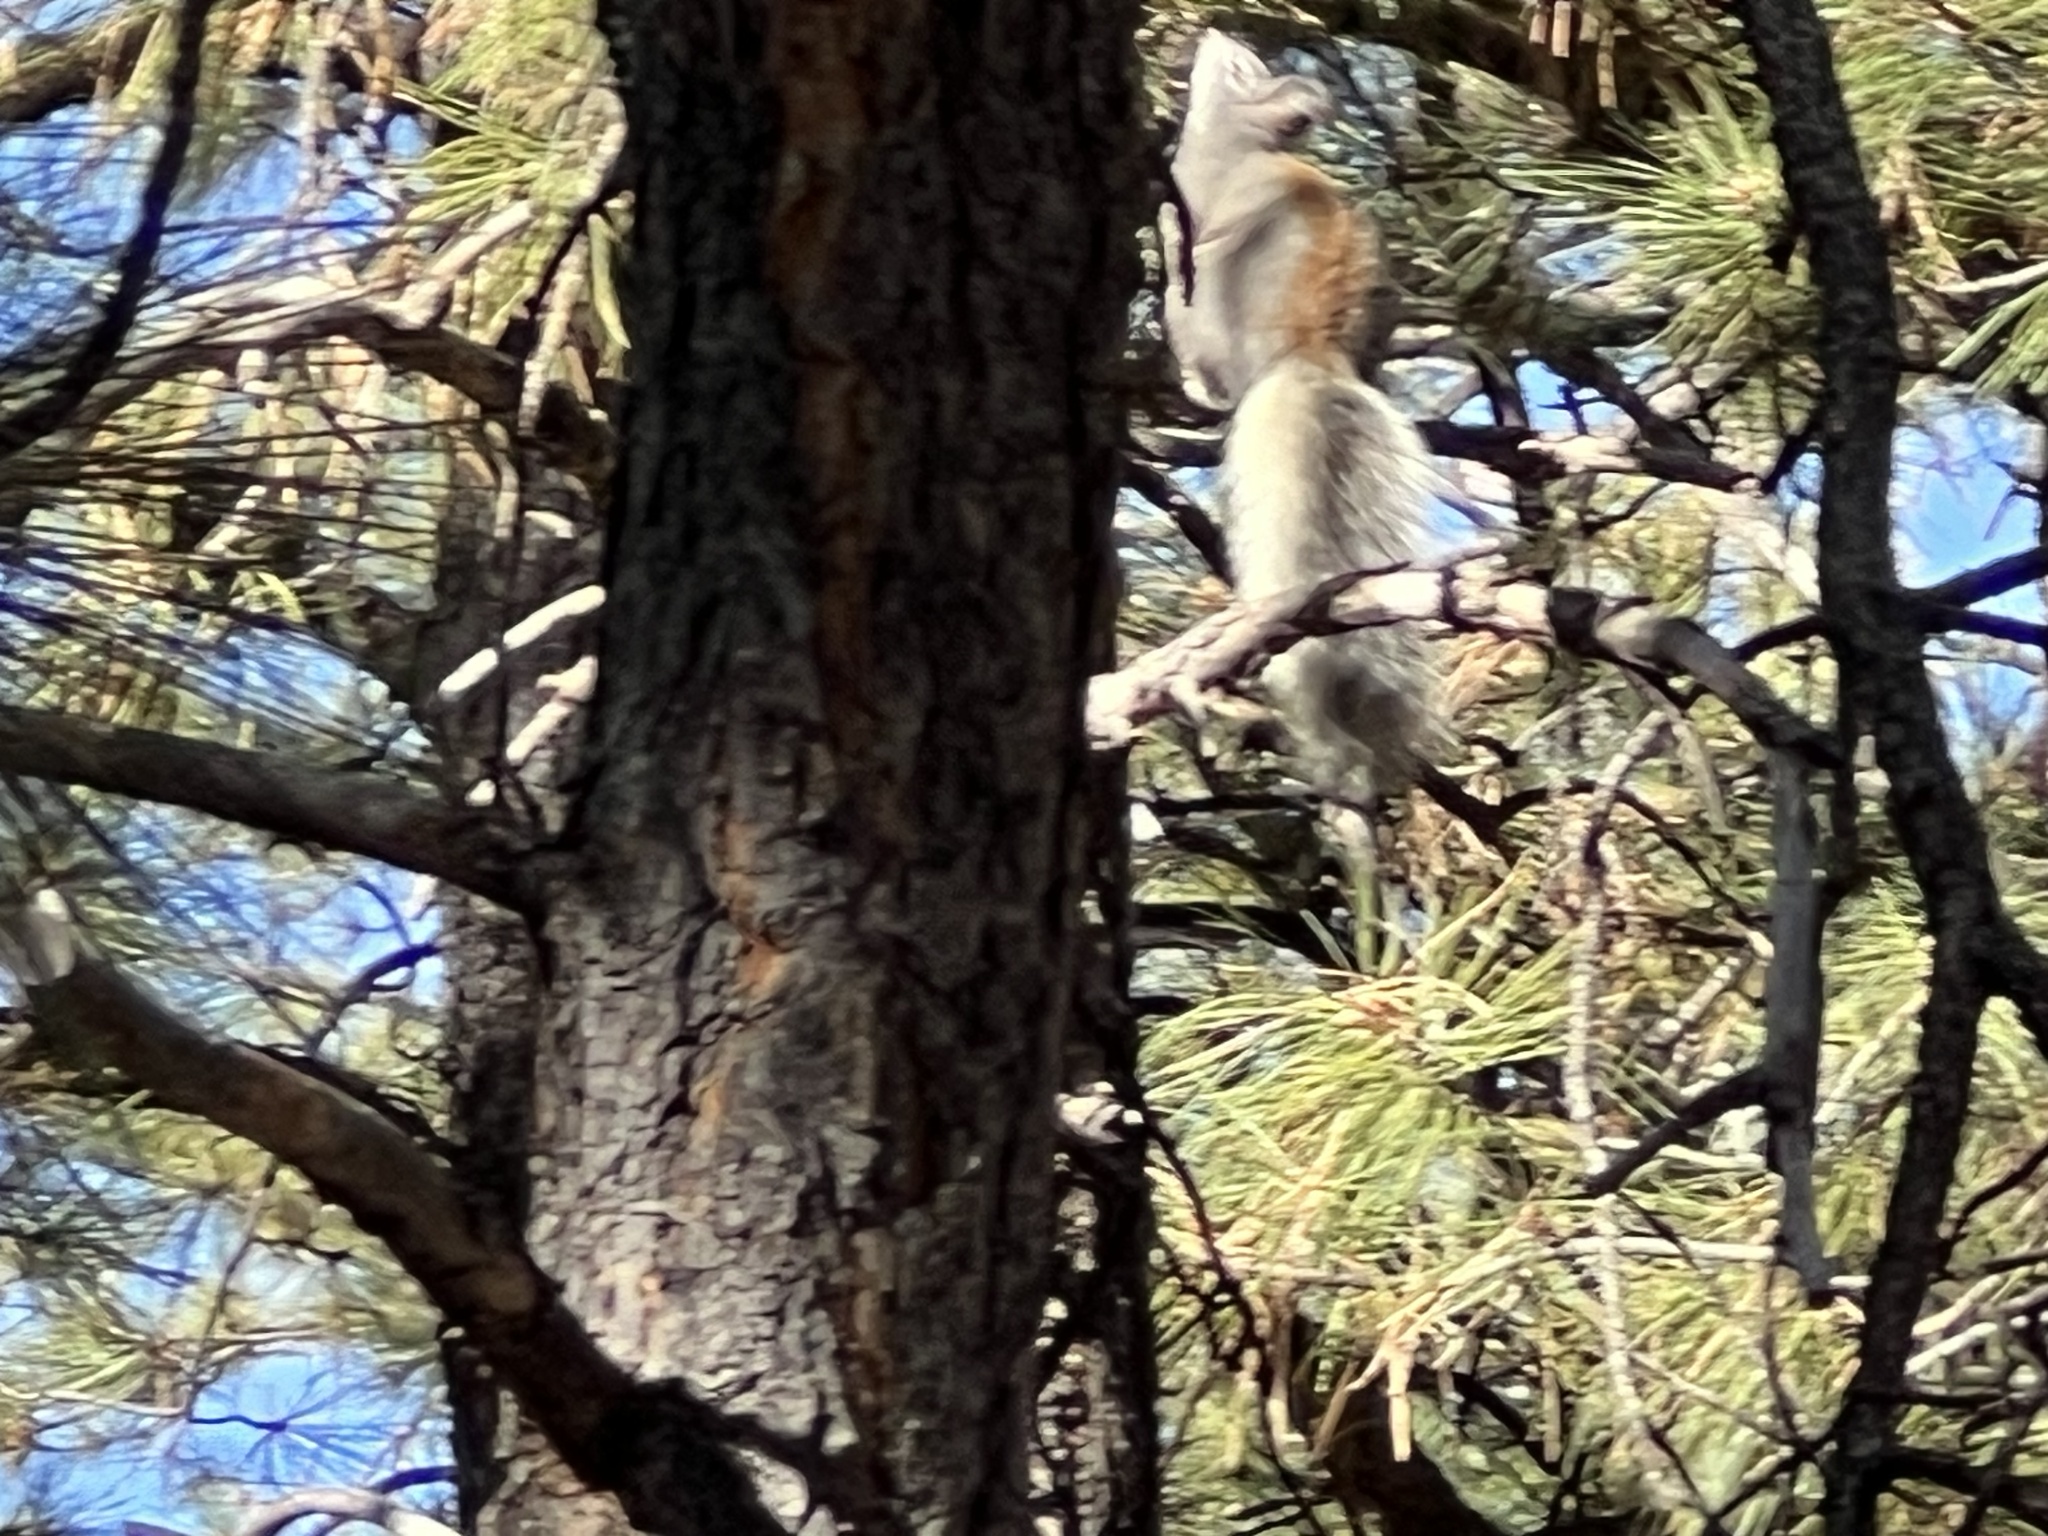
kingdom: Animalia
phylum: Chordata
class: Mammalia
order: Rodentia
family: Sciuridae
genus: Sciurus
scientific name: Sciurus aberti
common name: Abert's squirrel
